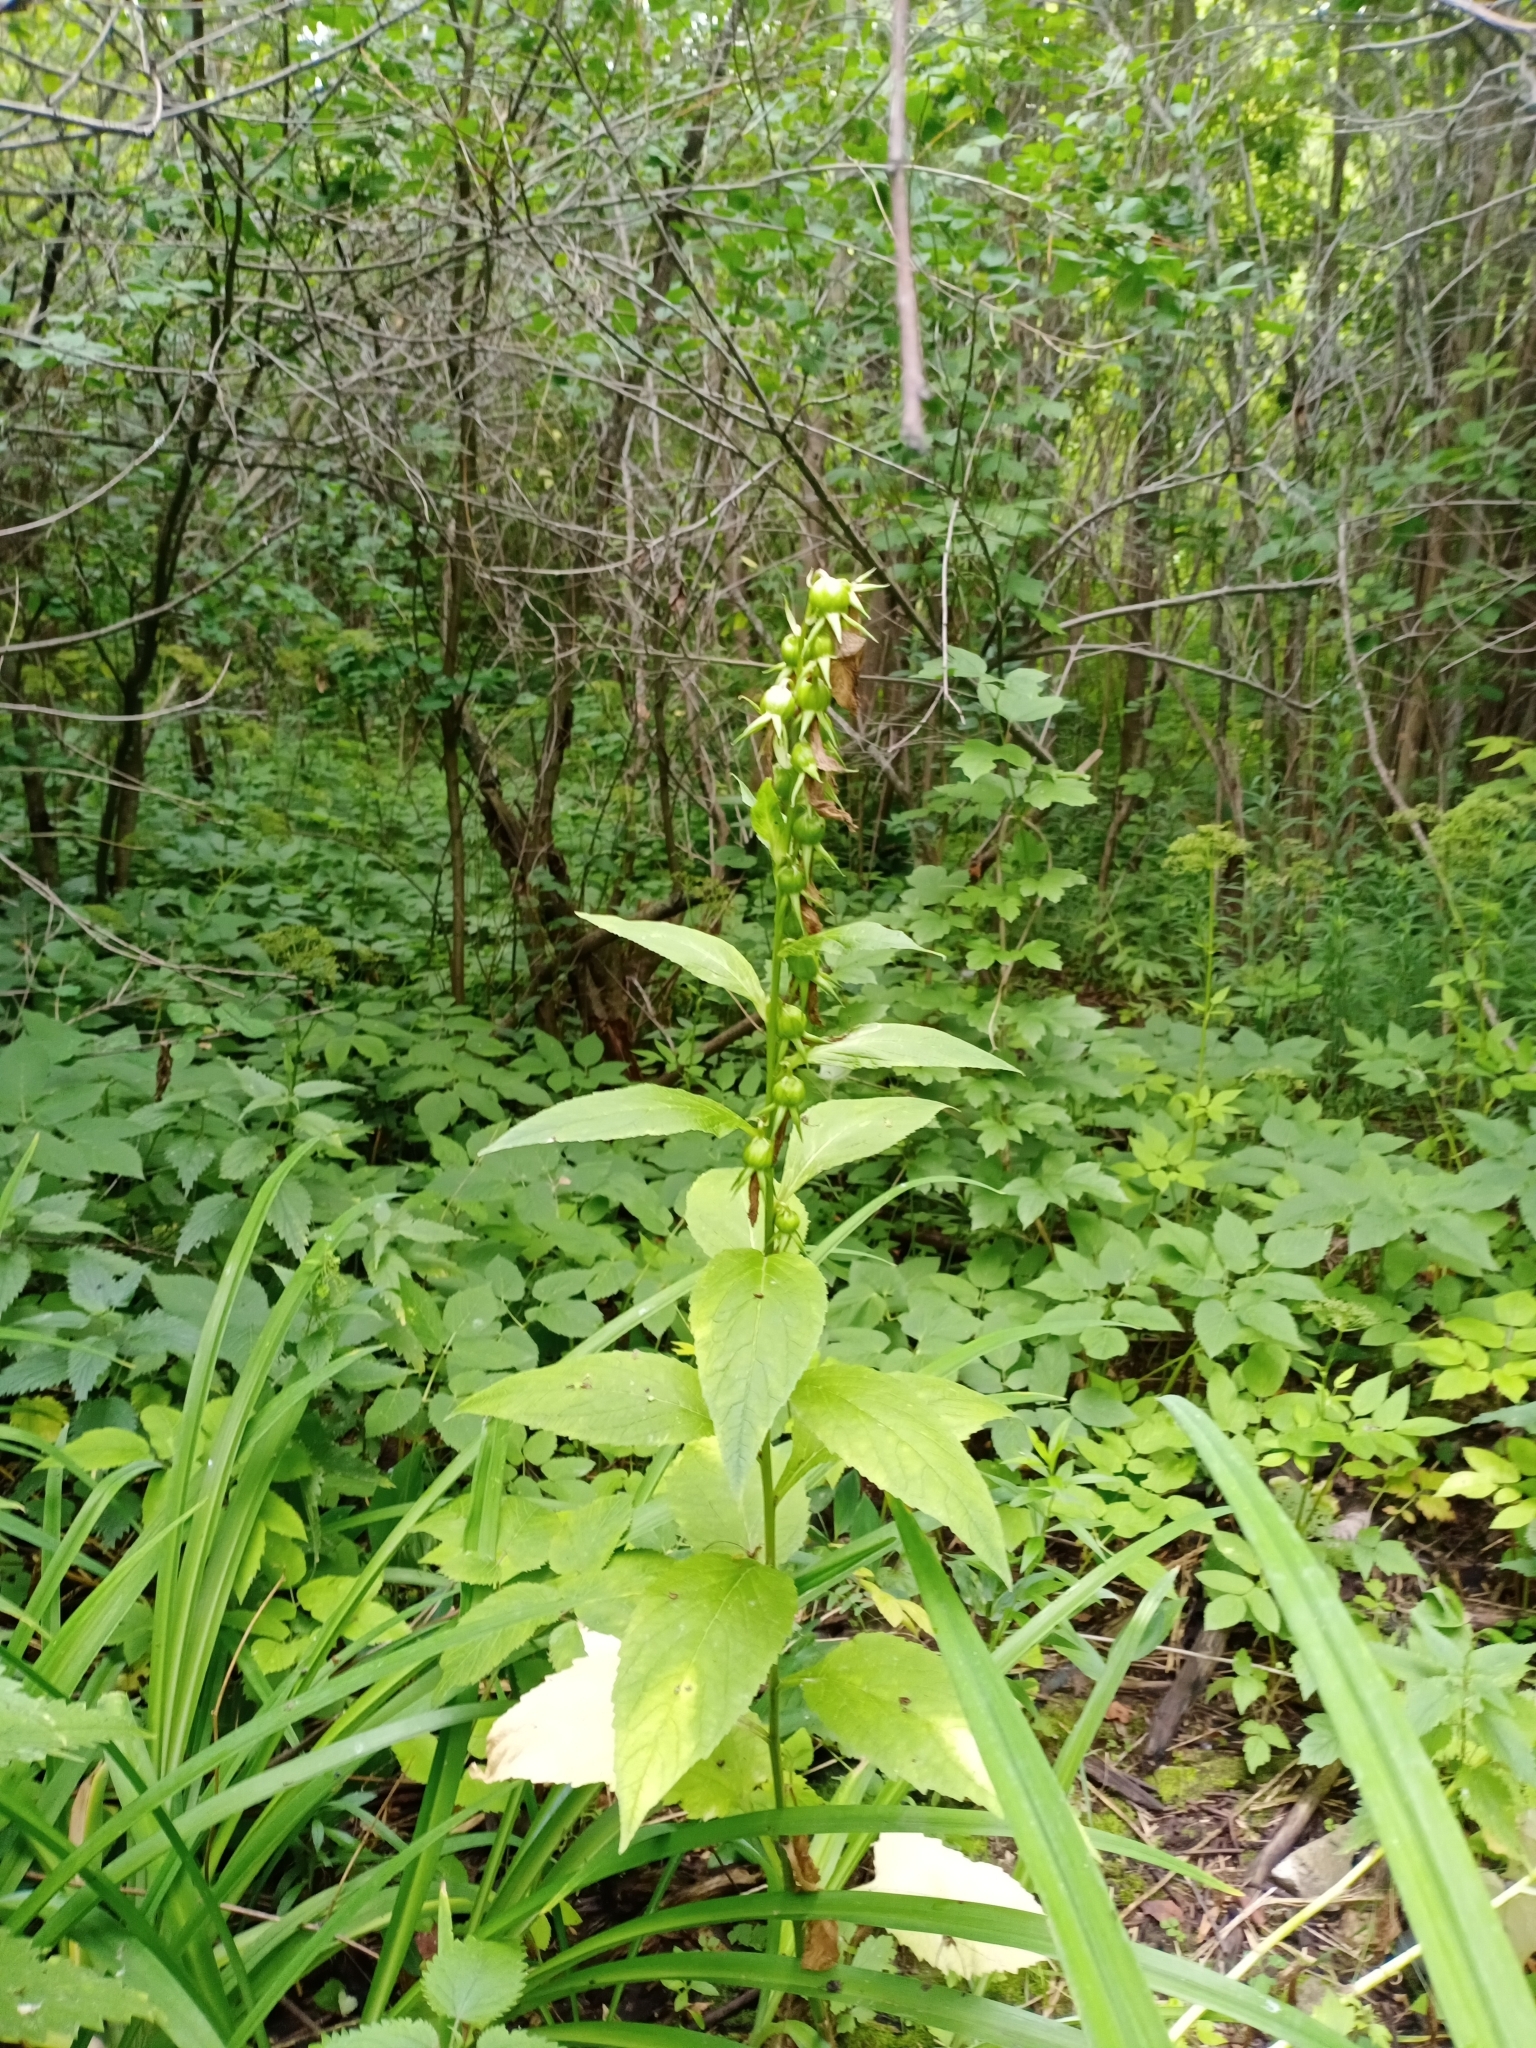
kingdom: Plantae
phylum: Tracheophyta
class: Magnoliopsida
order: Asterales
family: Campanulaceae
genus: Campanula
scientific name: Campanula latifolia
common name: Giant bellflower
